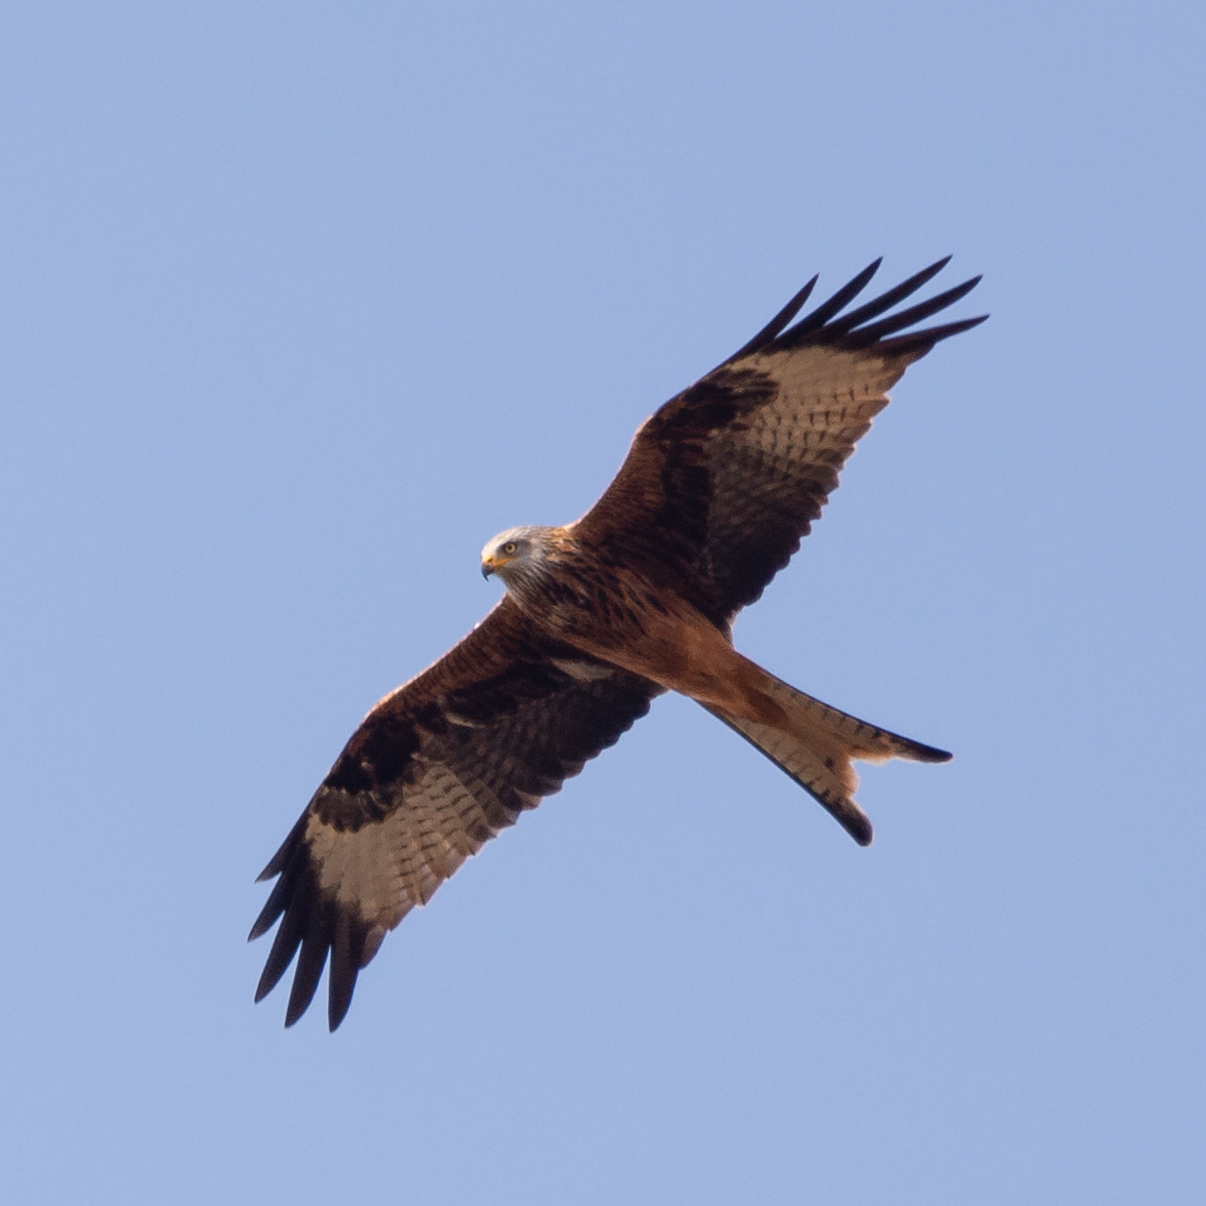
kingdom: Animalia
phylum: Chordata
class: Aves
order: Accipitriformes
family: Accipitridae
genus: Milvus
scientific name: Milvus milvus
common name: Red kite
